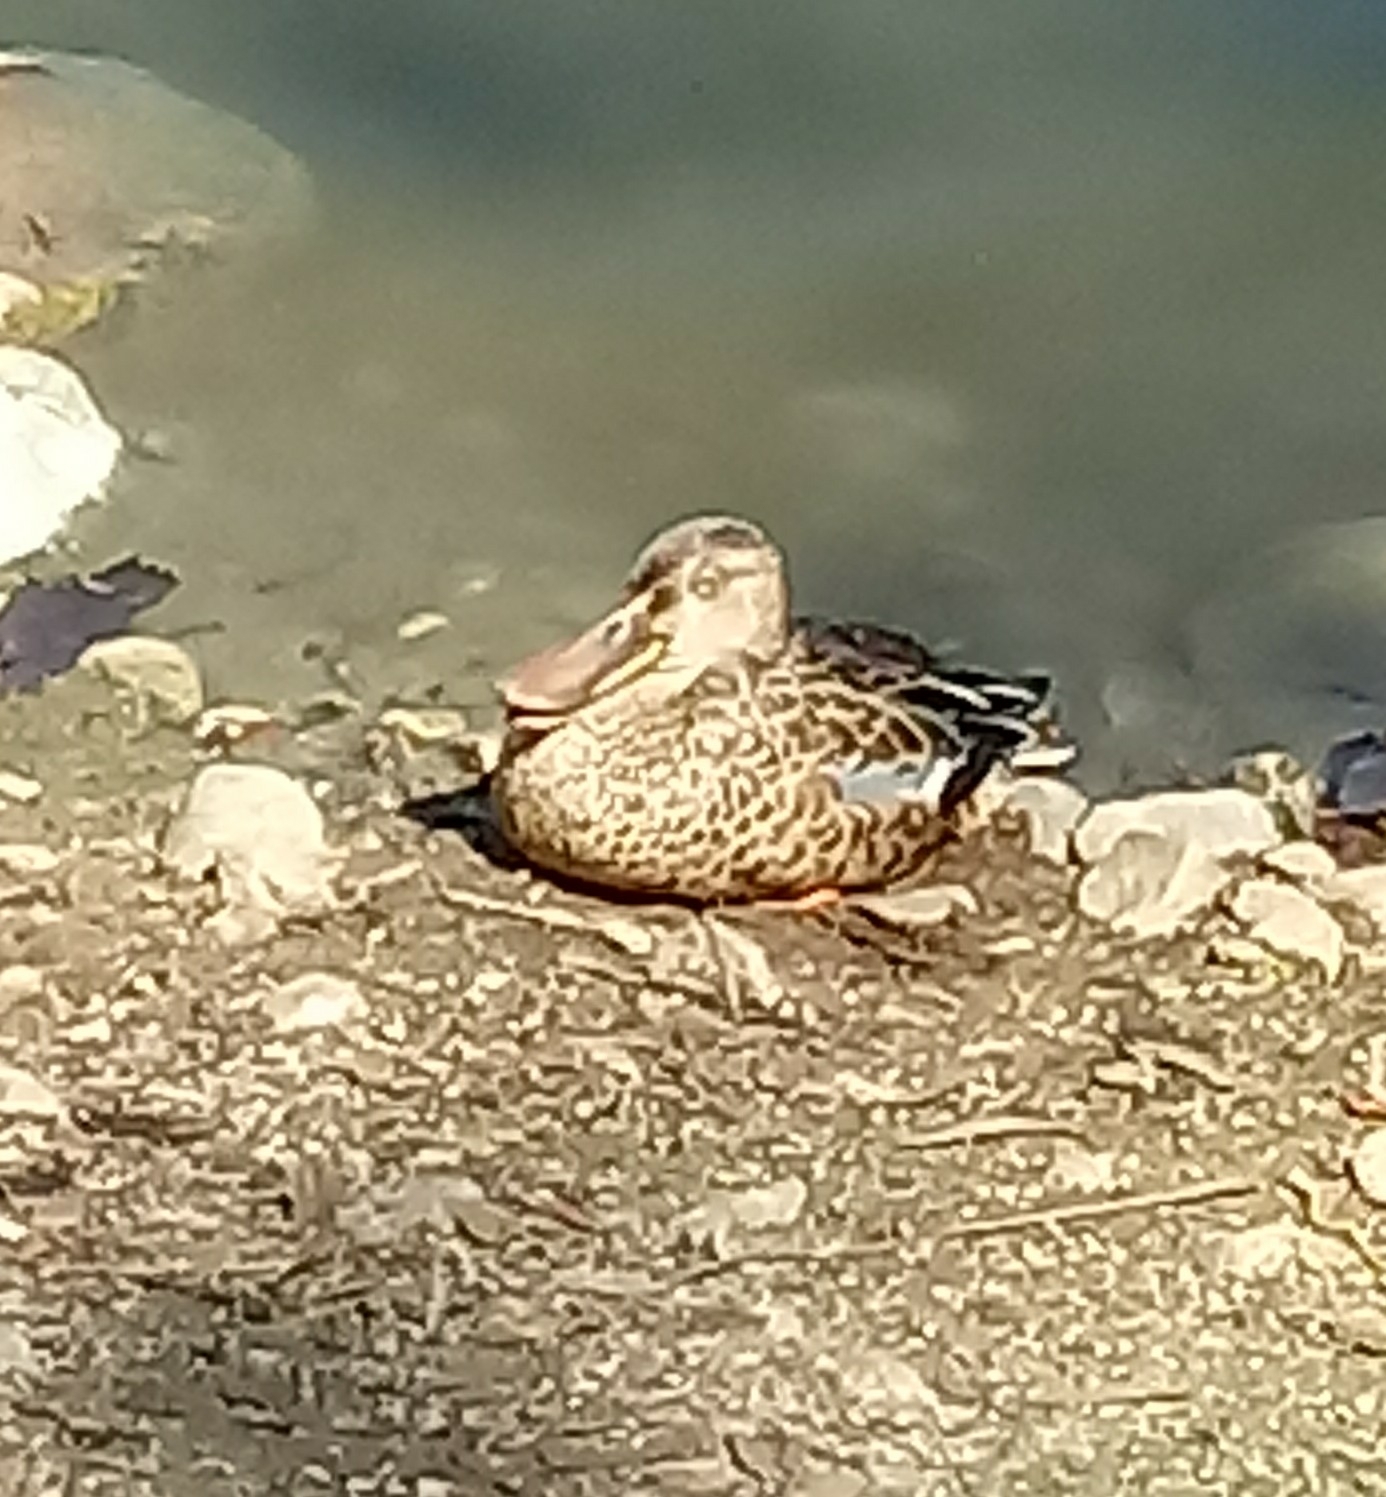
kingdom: Animalia
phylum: Chordata
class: Aves
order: Anseriformes
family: Anatidae
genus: Spatula
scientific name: Spatula clypeata
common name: Northern shoveler
